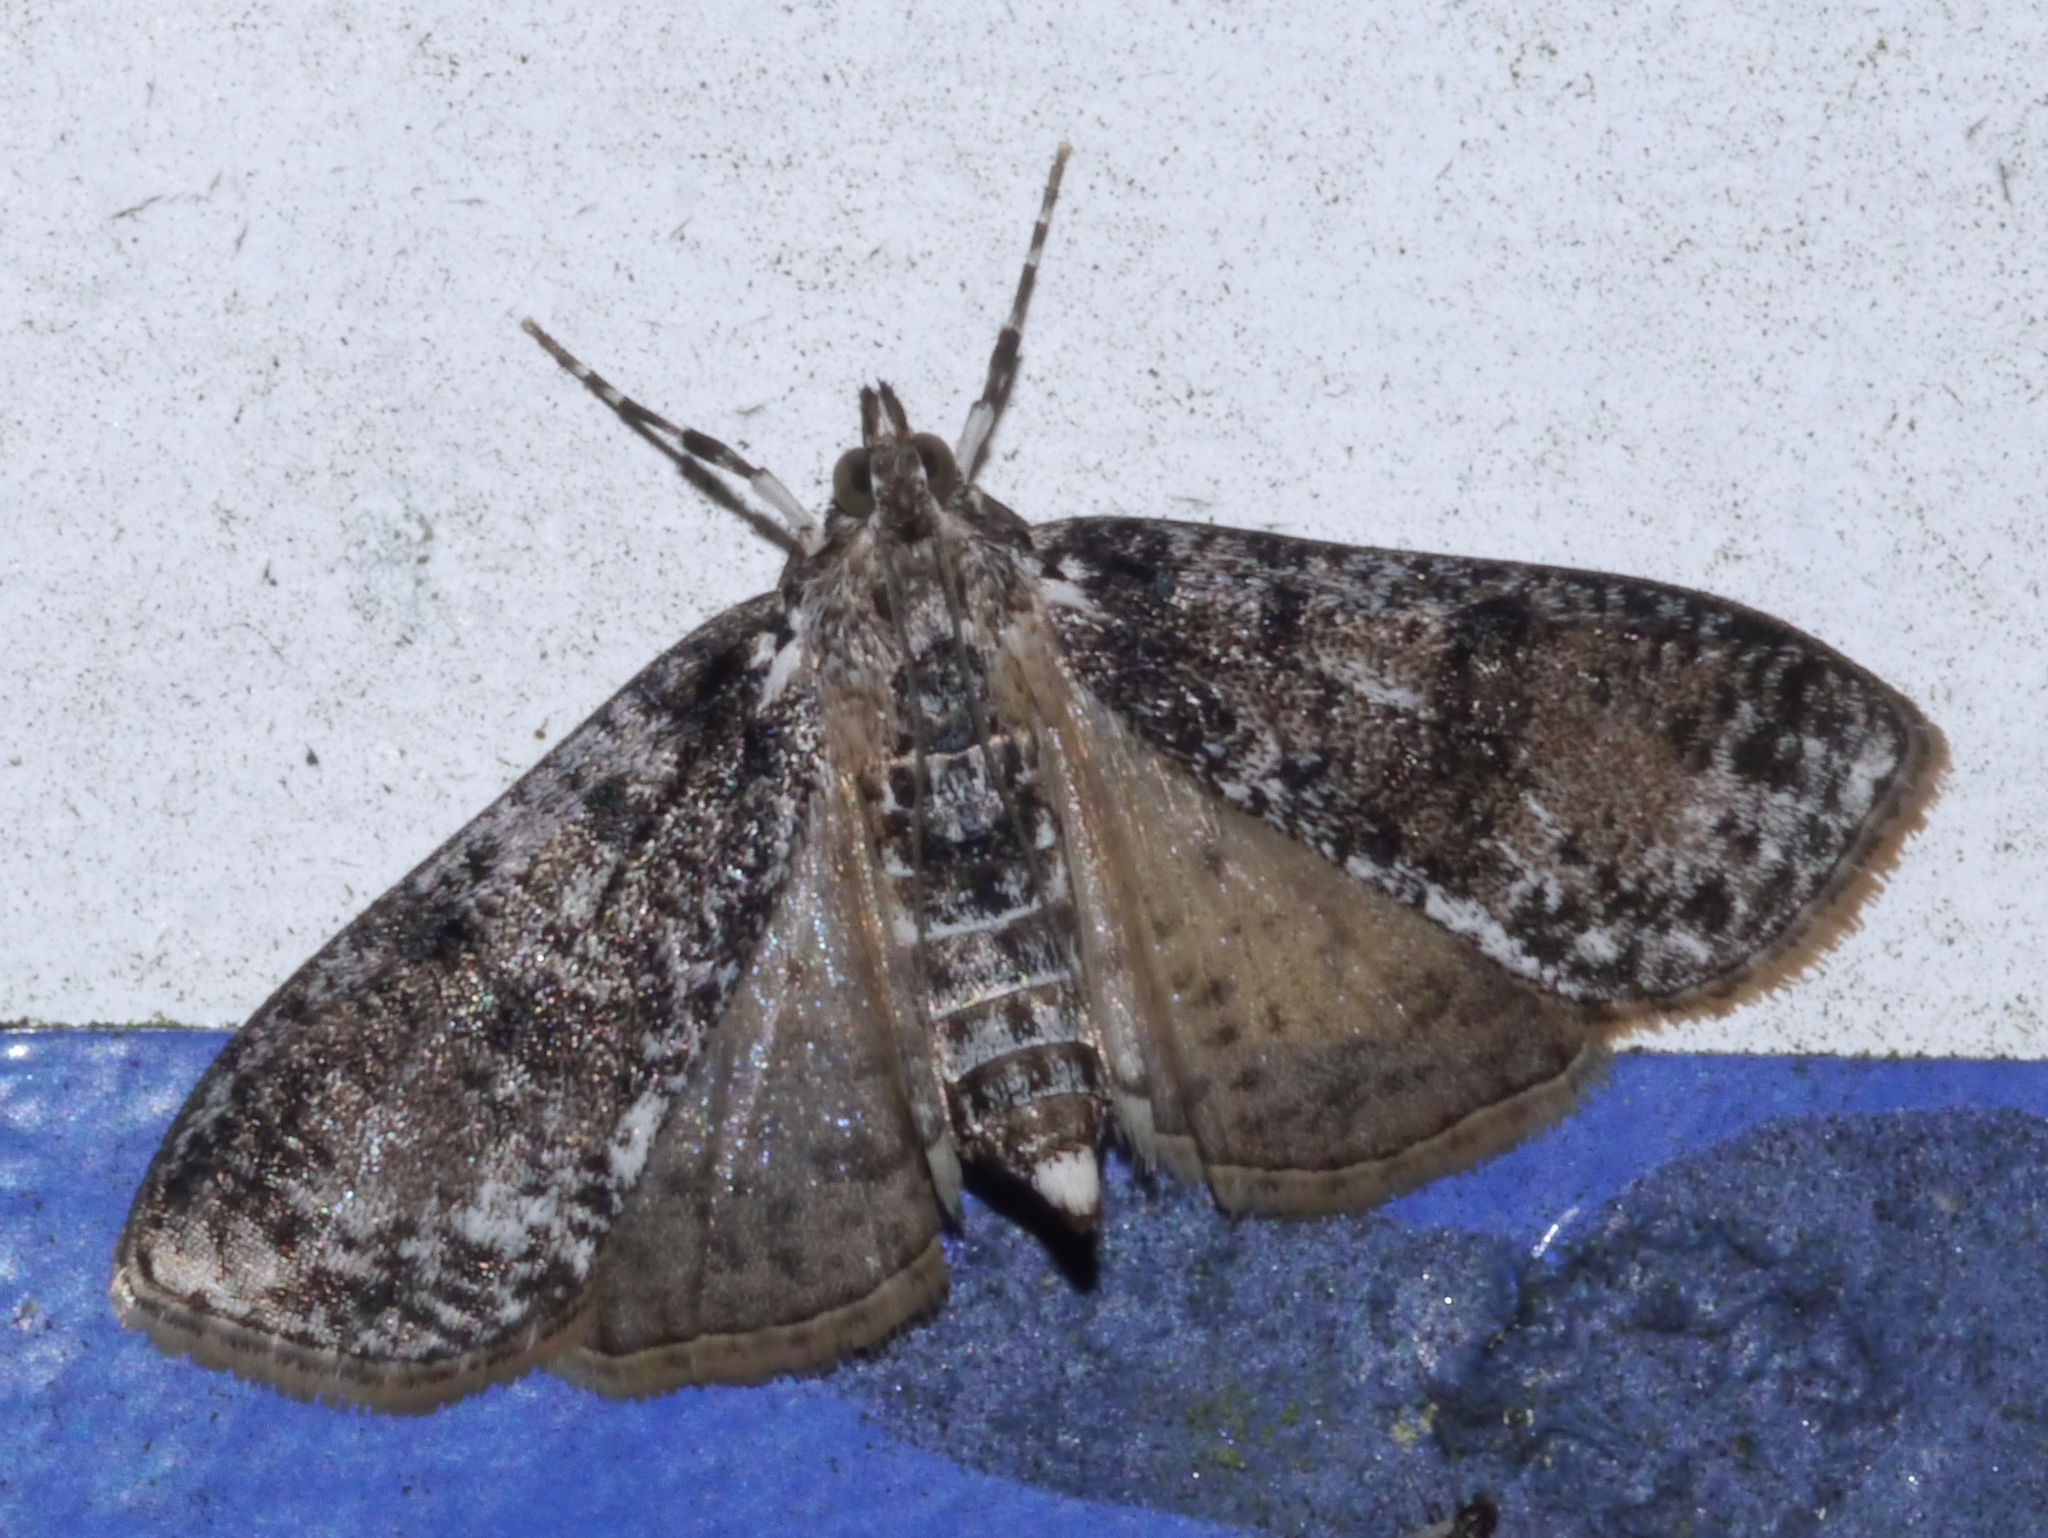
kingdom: Animalia
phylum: Arthropoda
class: Insecta
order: Lepidoptera
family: Crambidae
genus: Palpita
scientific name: Palpita magniferalis
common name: Splendid palpita moth
